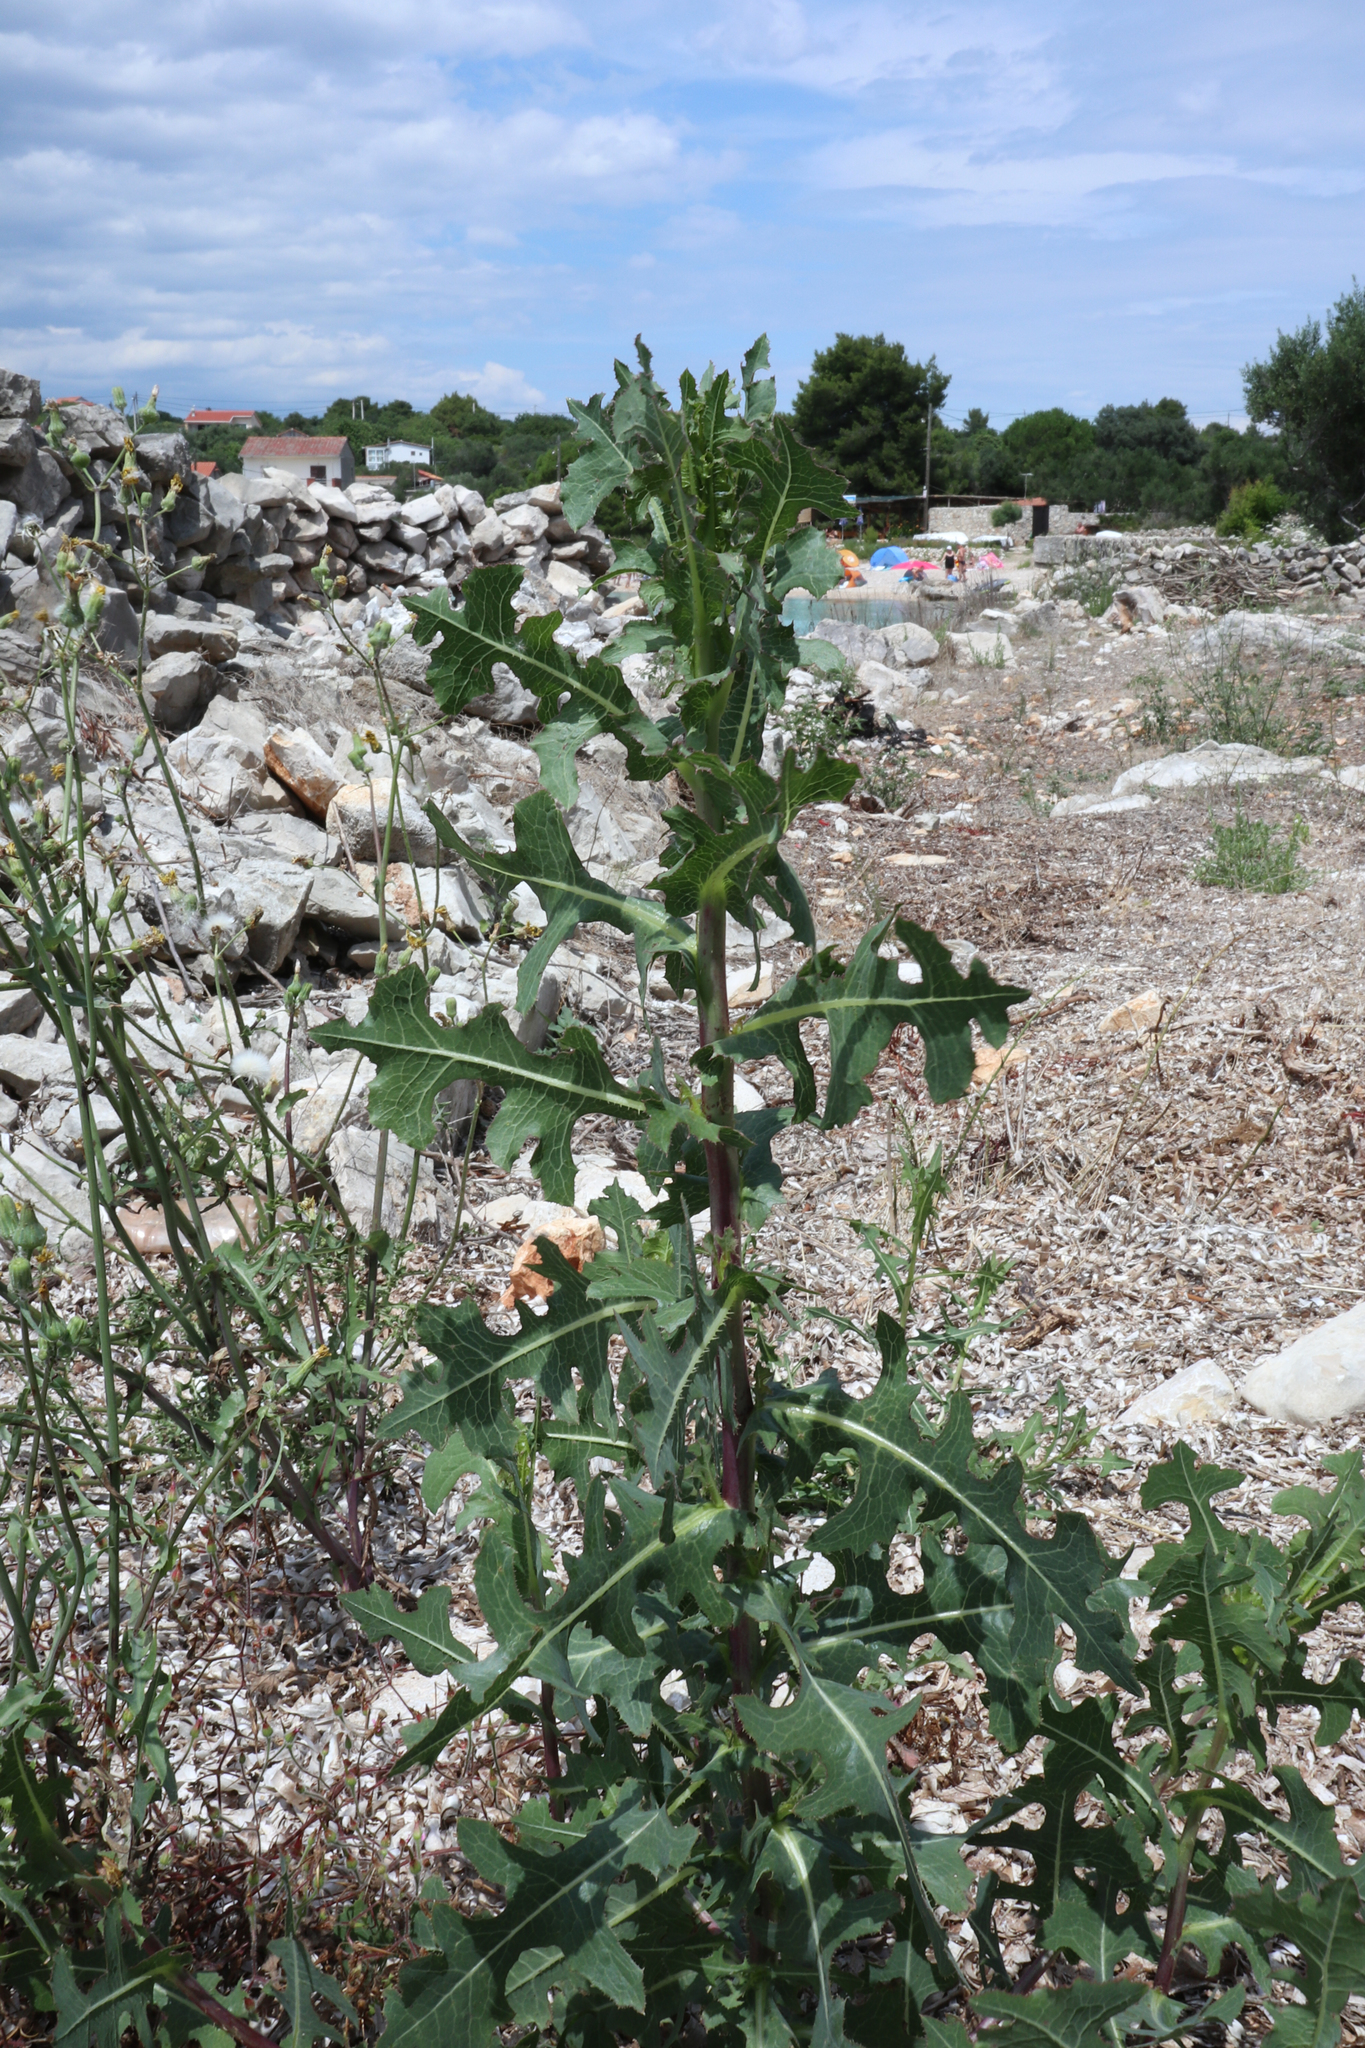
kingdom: Plantae
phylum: Tracheophyta
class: Magnoliopsida
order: Asterales
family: Asteraceae
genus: Lactuca
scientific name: Lactuca serriola
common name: Prickly lettuce
